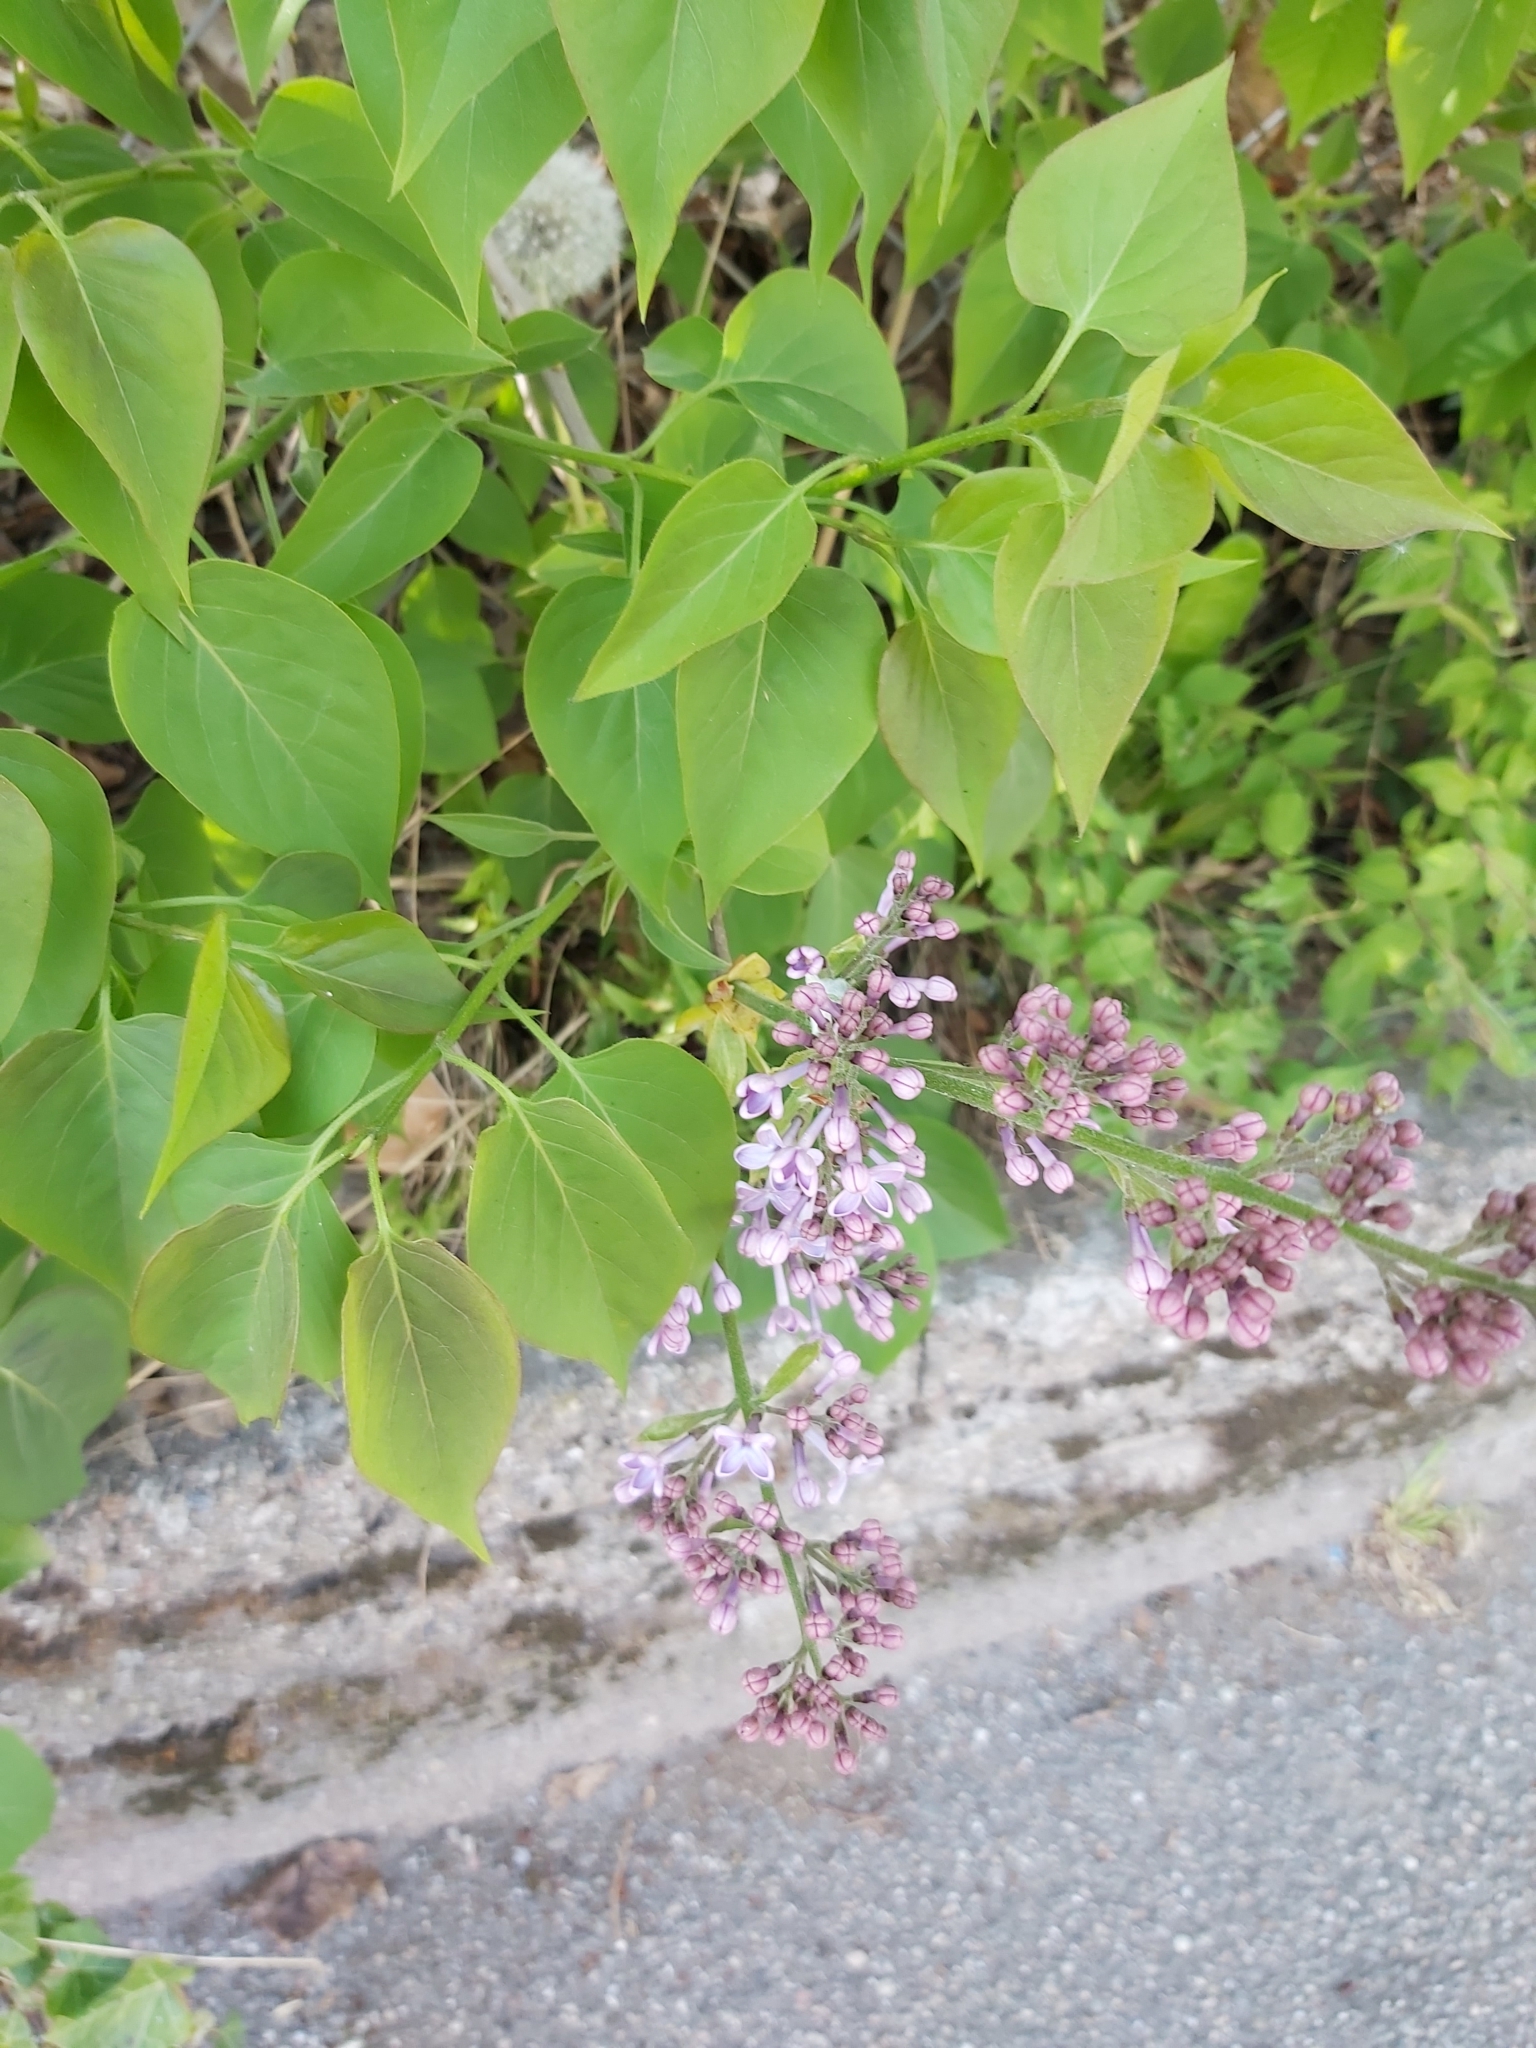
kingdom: Plantae
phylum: Tracheophyta
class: Magnoliopsida
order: Lamiales
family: Oleaceae
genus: Syringa
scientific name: Syringa vulgaris
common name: Common lilac
